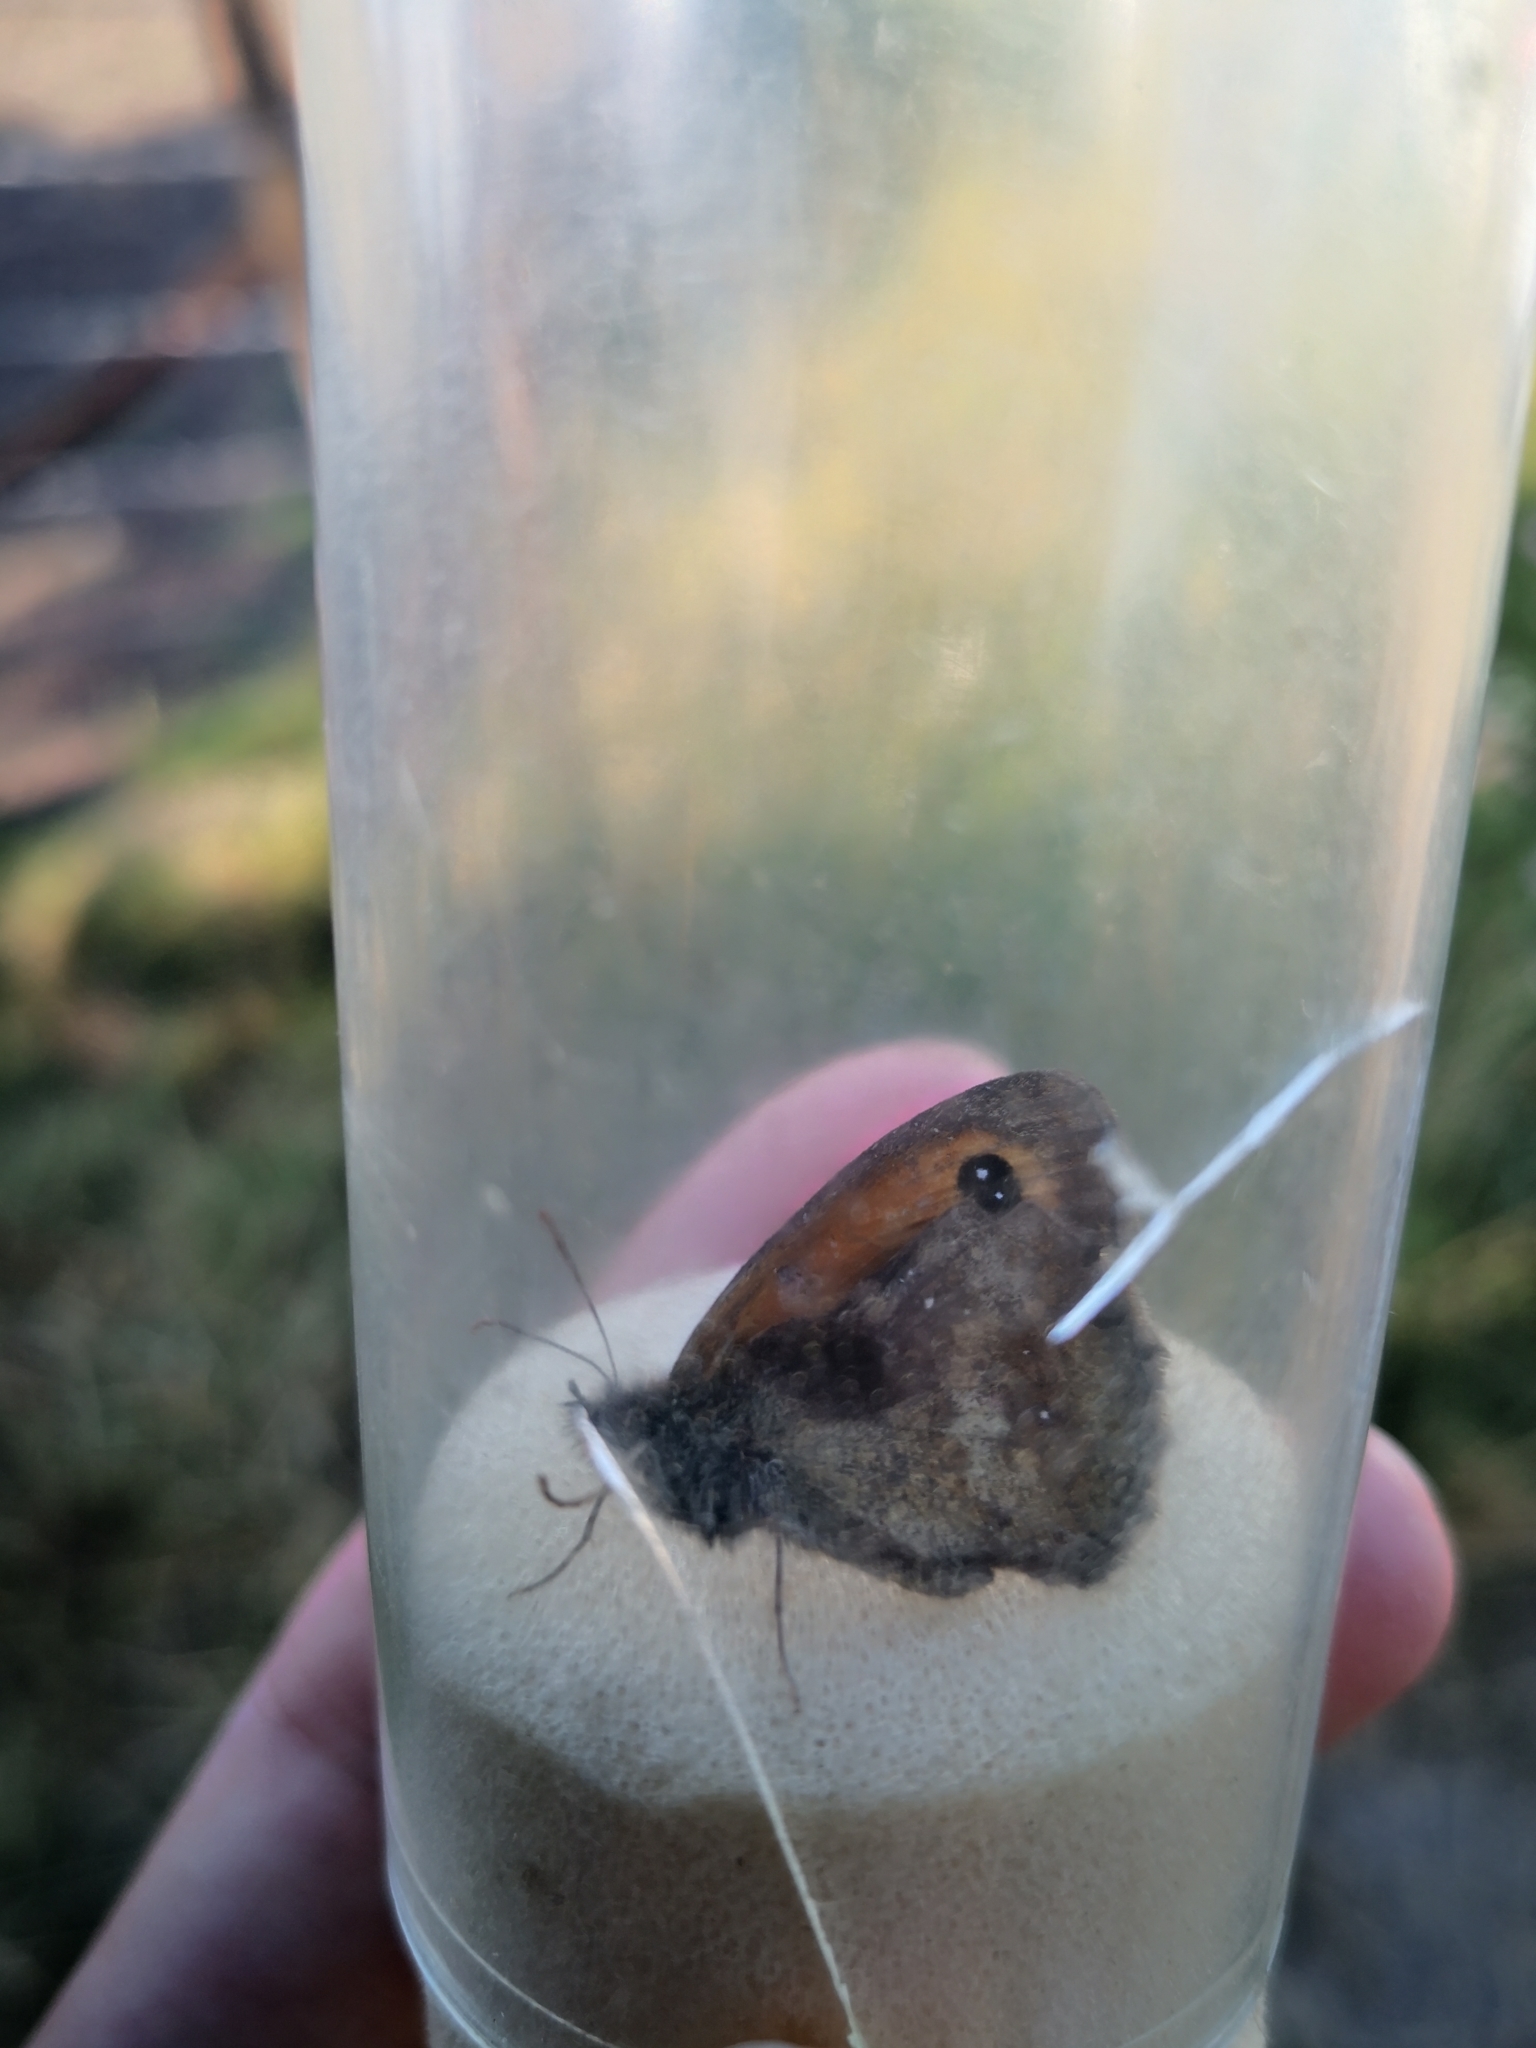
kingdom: Animalia
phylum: Arthropoda
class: Insecta
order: Lepidoptera
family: Nymphalidae
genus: Pyronia
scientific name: Pyronia tithonus
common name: Gatekeeper
